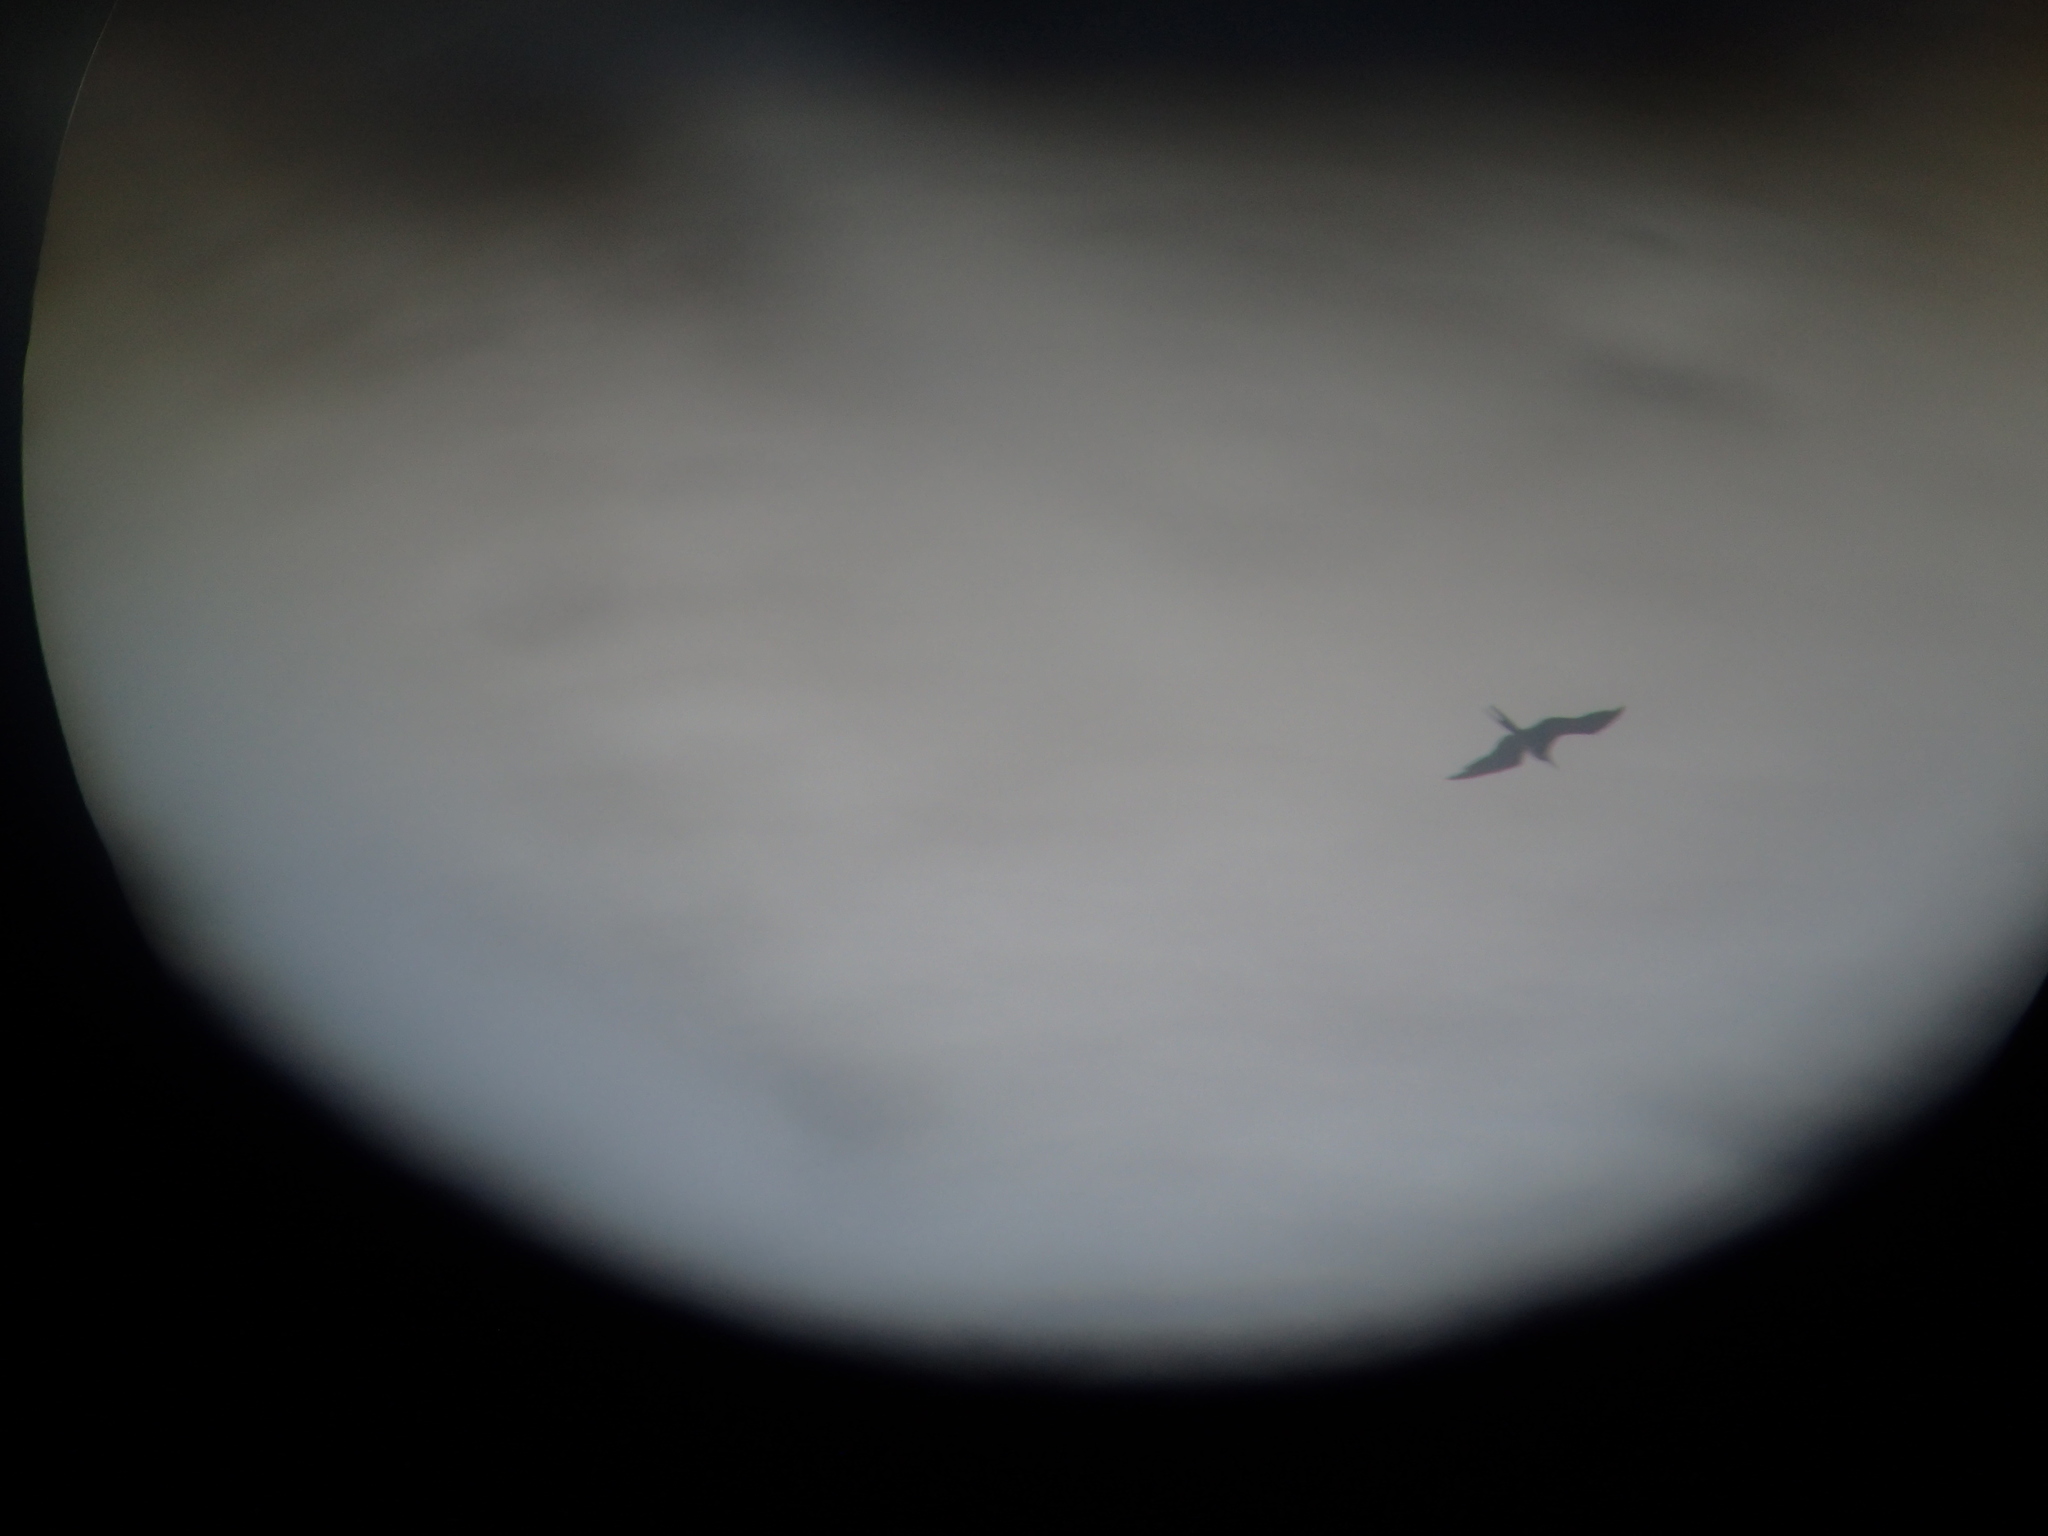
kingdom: Animalia
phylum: Chordata
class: Aves
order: Suliformes
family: Fregatidae
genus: Fregata
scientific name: Fregata magnificens
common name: Magnificent frigatebird
